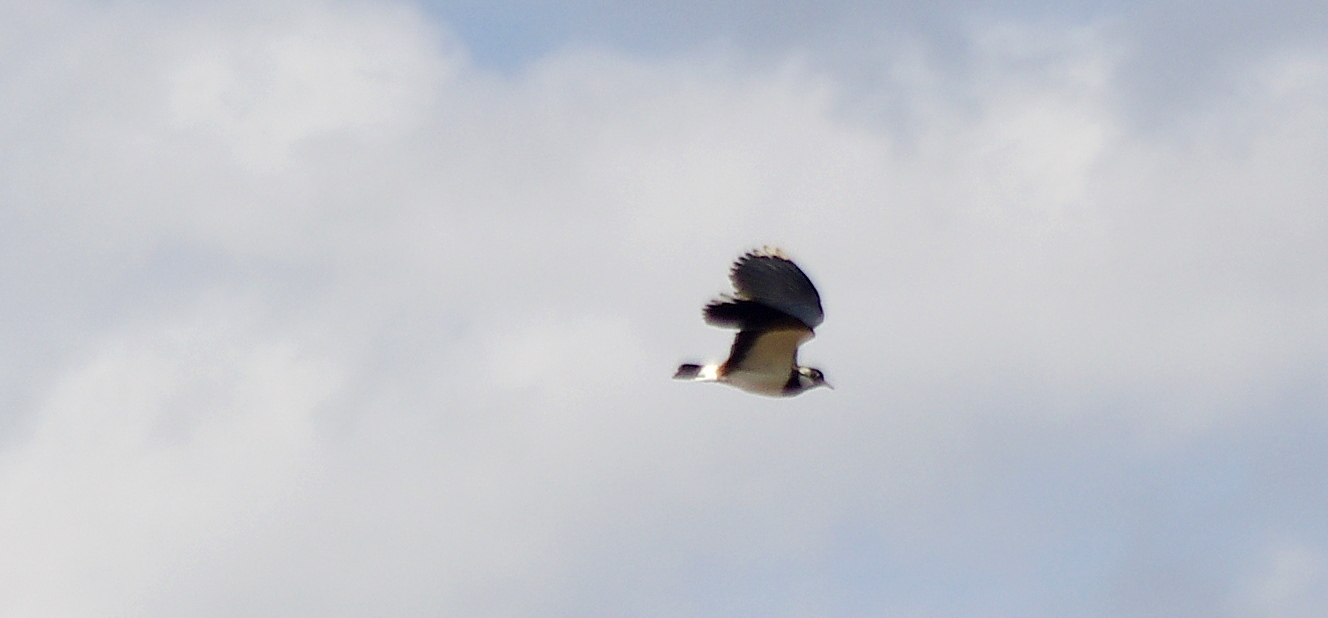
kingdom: Animalia
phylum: Chordata
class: Aves
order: Charadriiformes
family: Charadriidae
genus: Vanellus
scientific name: Vanellus vanellus
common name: Northern lapwing
